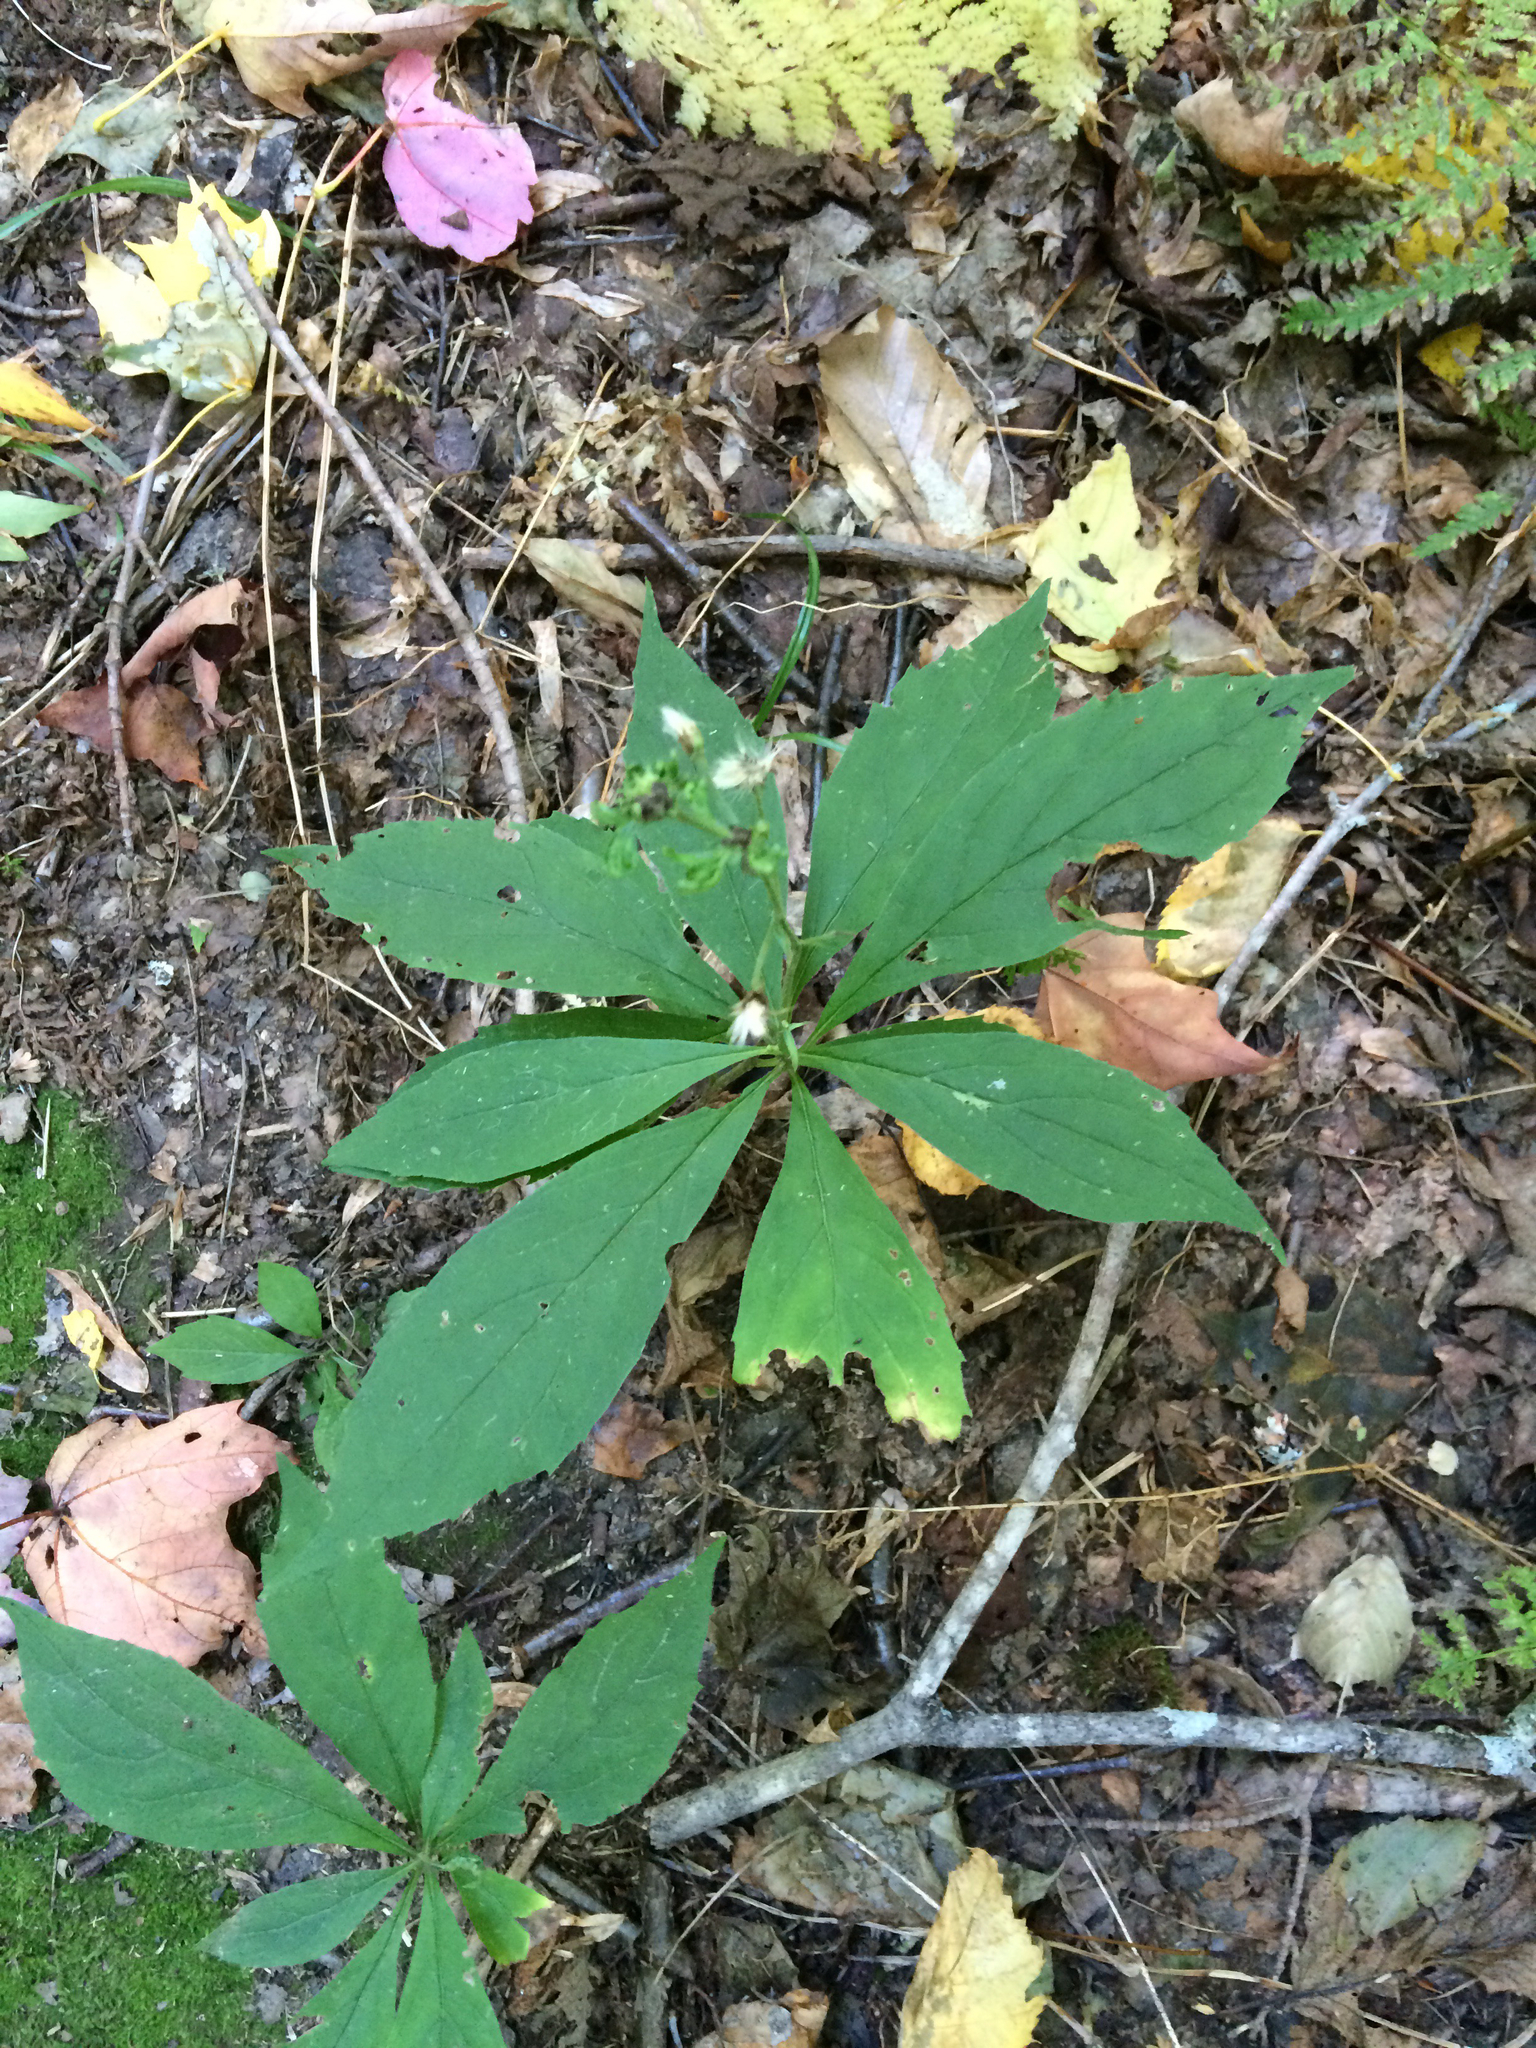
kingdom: Plantae
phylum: Tracheophyta
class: Magnoliopsida
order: Asterales
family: Asteraceae
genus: Oclemena
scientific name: Oclemena acuminata
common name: Mountain aster
